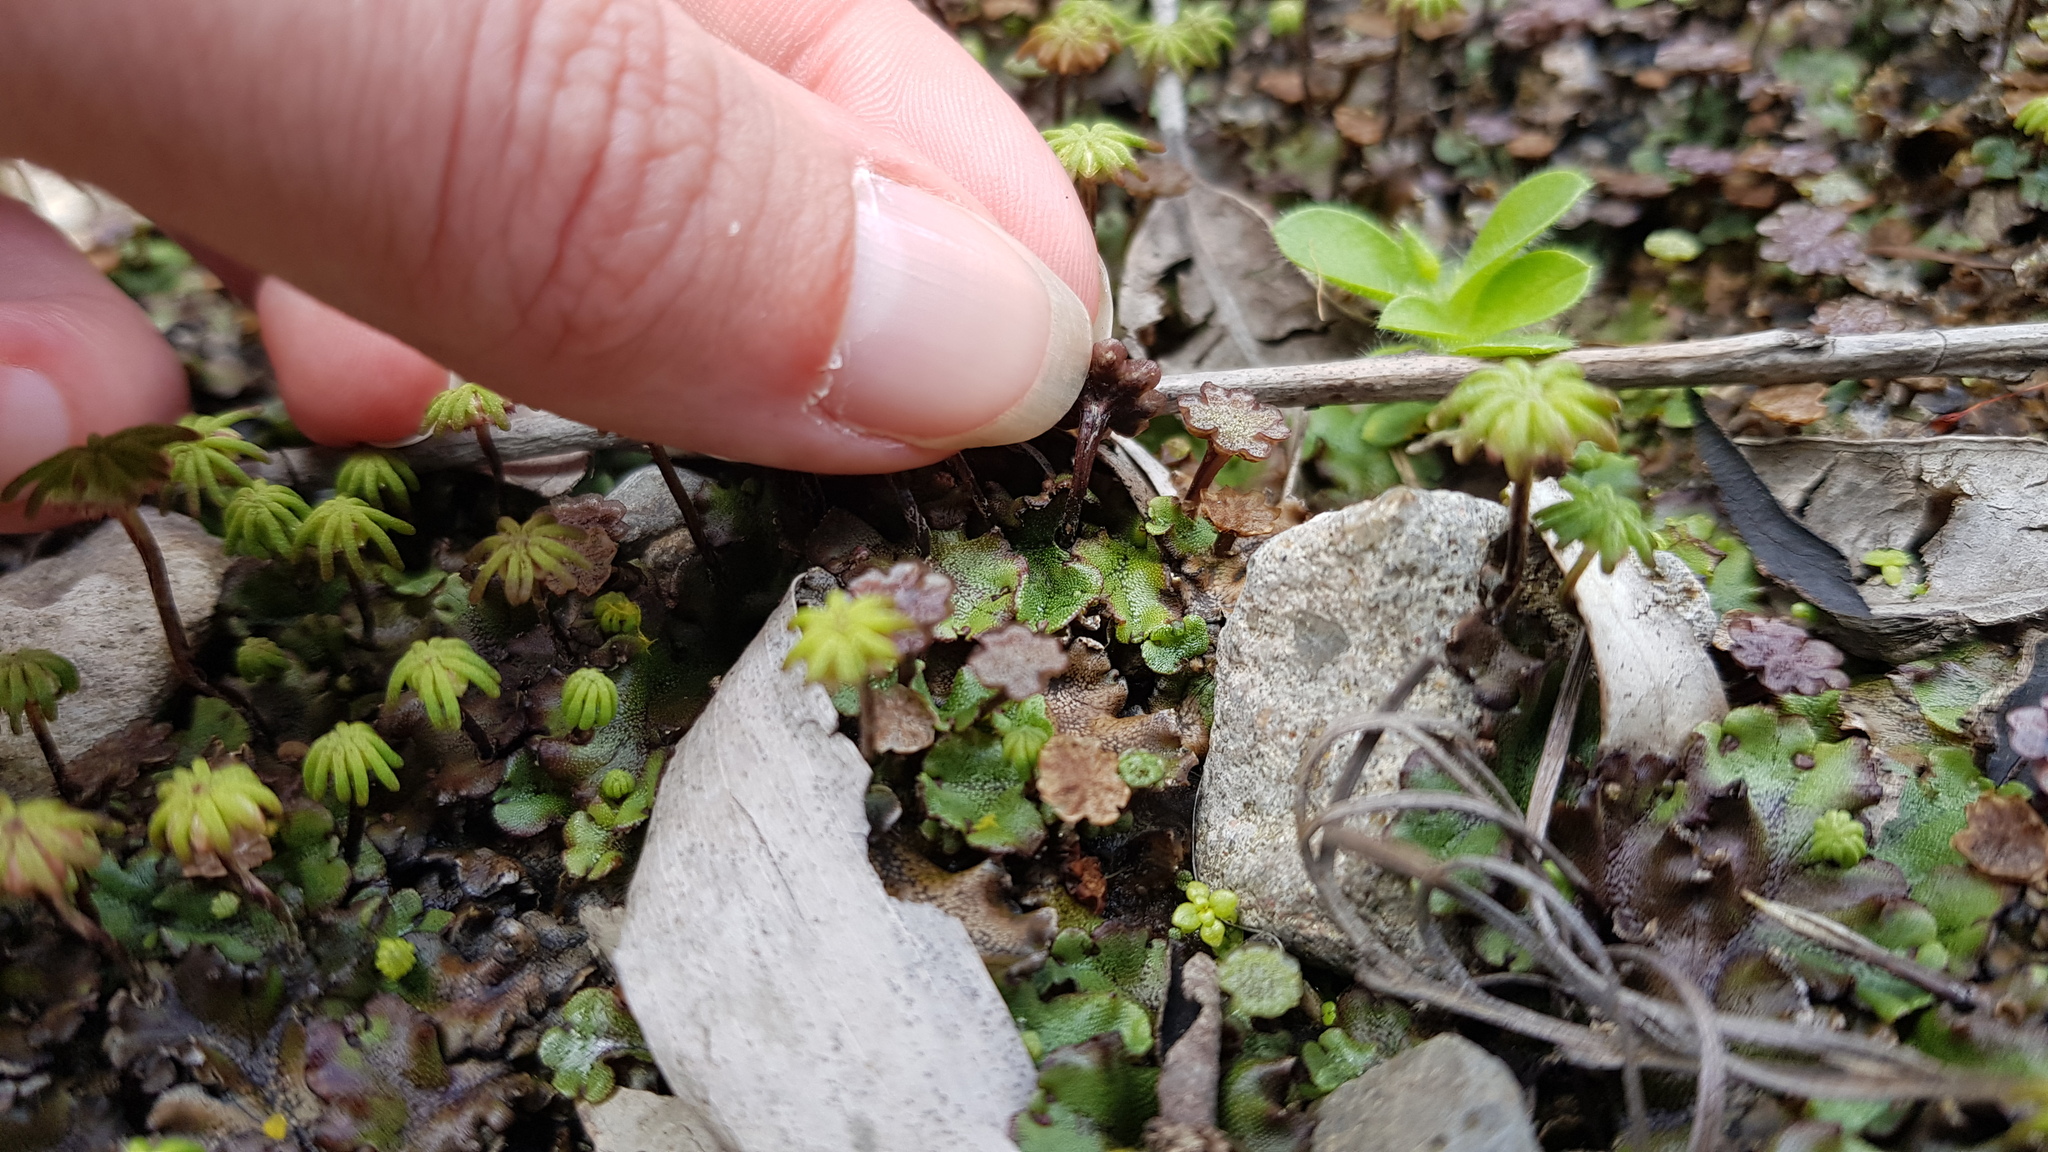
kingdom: Plantae
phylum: Marchantiophyta
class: Marchantiopsida
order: Marchantiales
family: Marchantiaceae
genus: Marchantia
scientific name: Marchantia polymorpha
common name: Common liverwort
